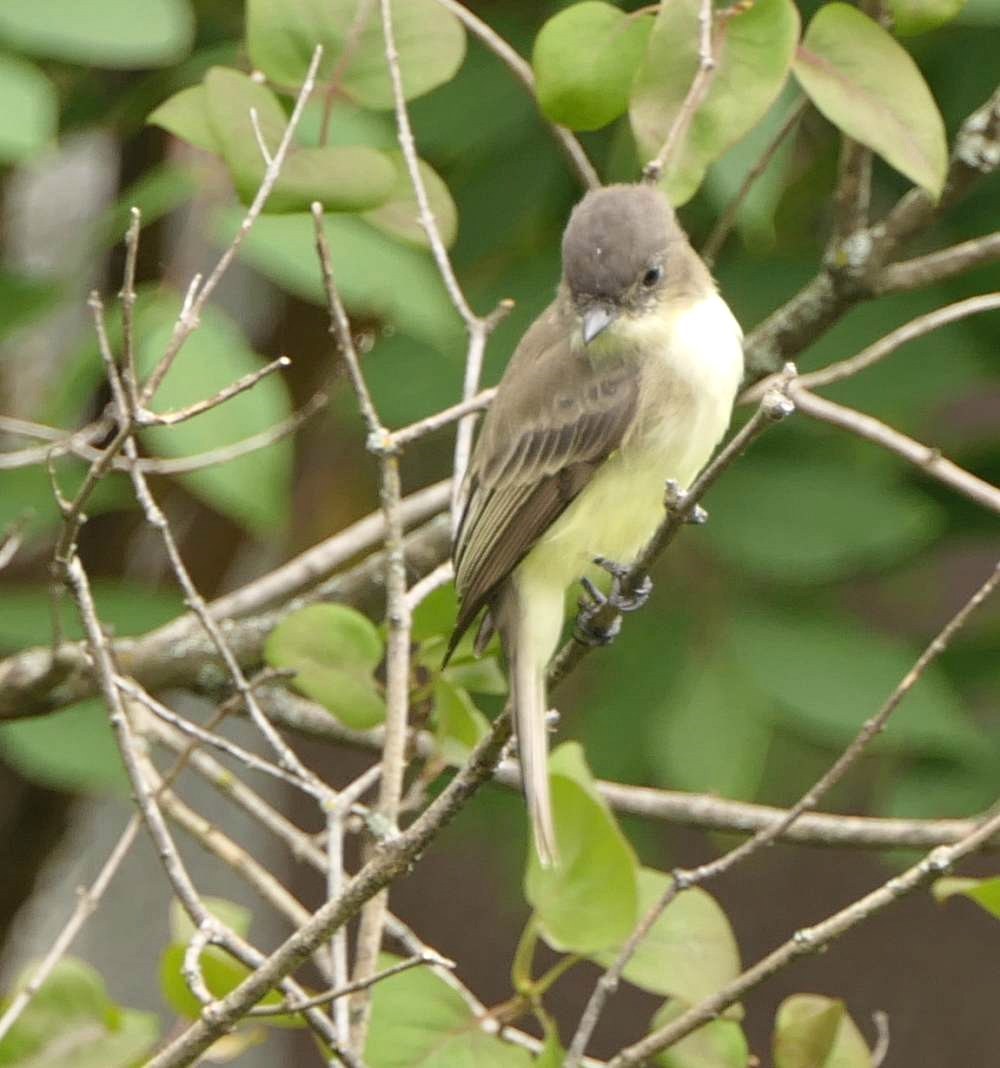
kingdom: Animalia
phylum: Chordata
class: Aves
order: Passeriformes
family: Tyrannidae
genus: Sayornis
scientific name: Sayornis phoebe
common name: Eastern phoebe
